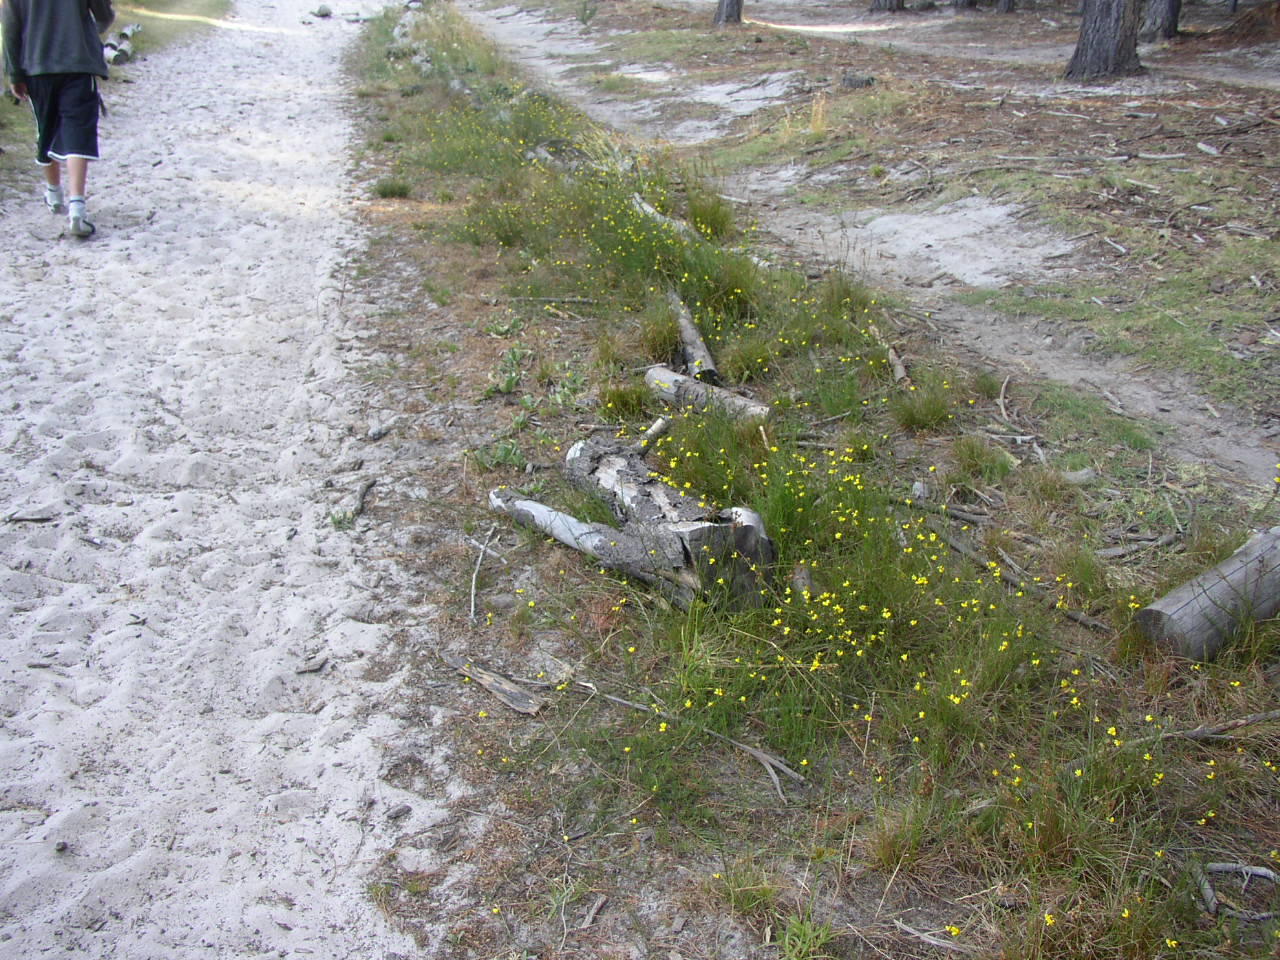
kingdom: Plantae
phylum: Tracheophyta
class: Magnoliopsida
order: Asterales
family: Campanulaceae
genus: Monopsis
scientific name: Monopsis lutea
